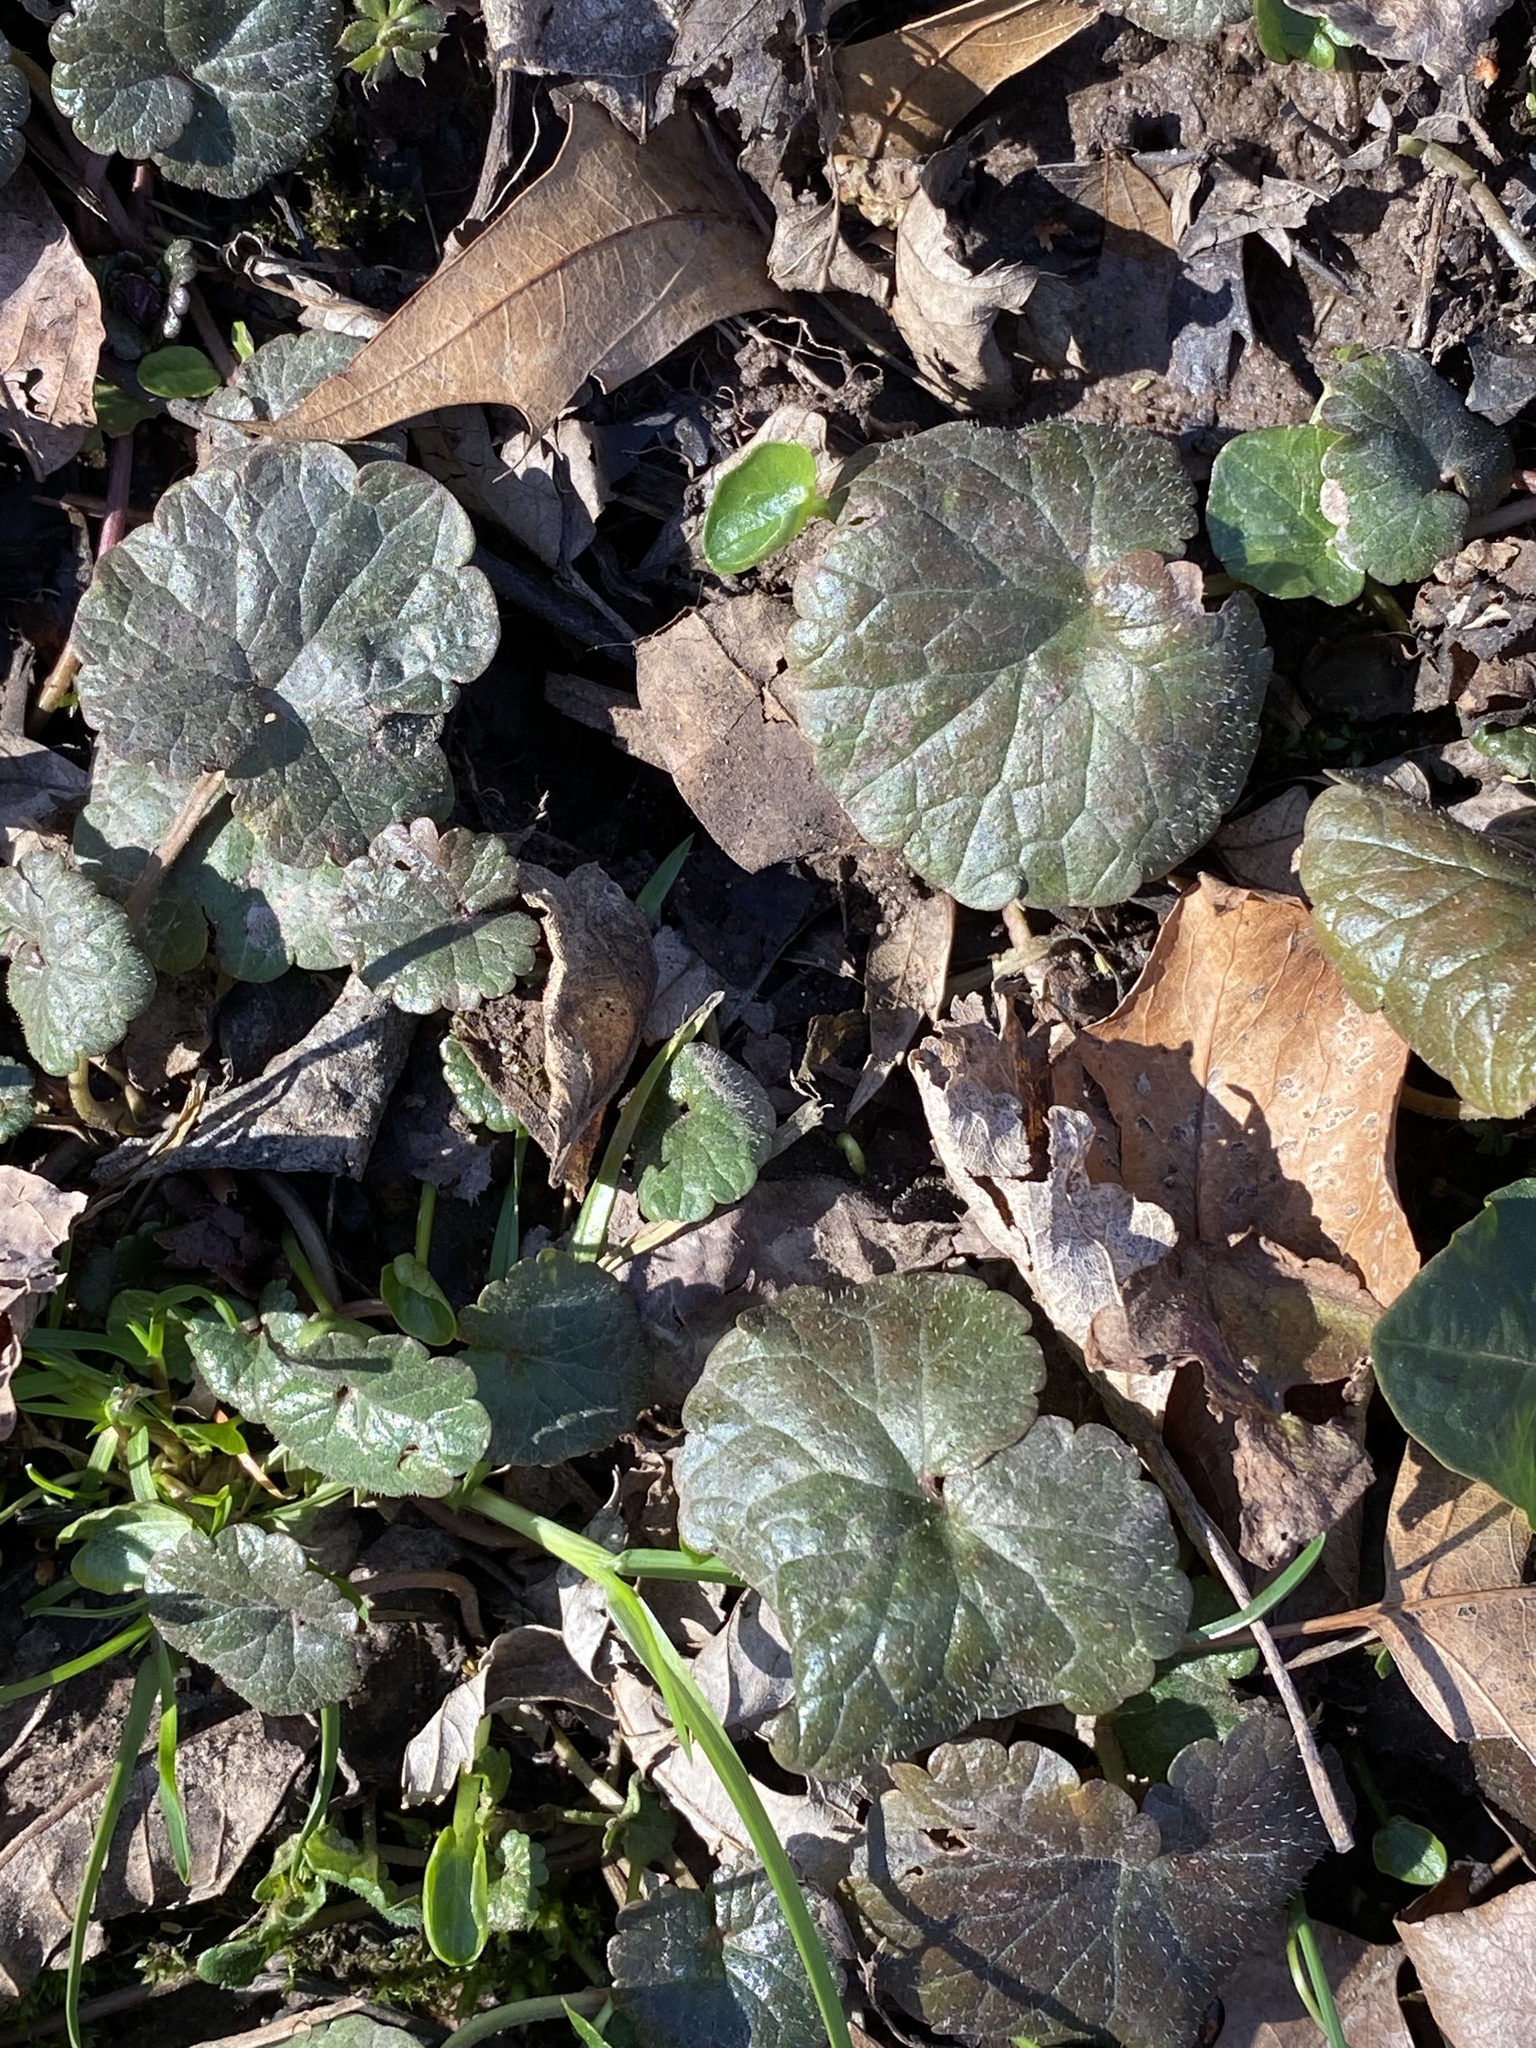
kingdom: Plantae
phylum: Tracheophyta
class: Magnoliopsida
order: Lamiales
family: Lamiaceae
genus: Glechoma
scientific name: Glechoma hederacea
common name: Ground ivy
